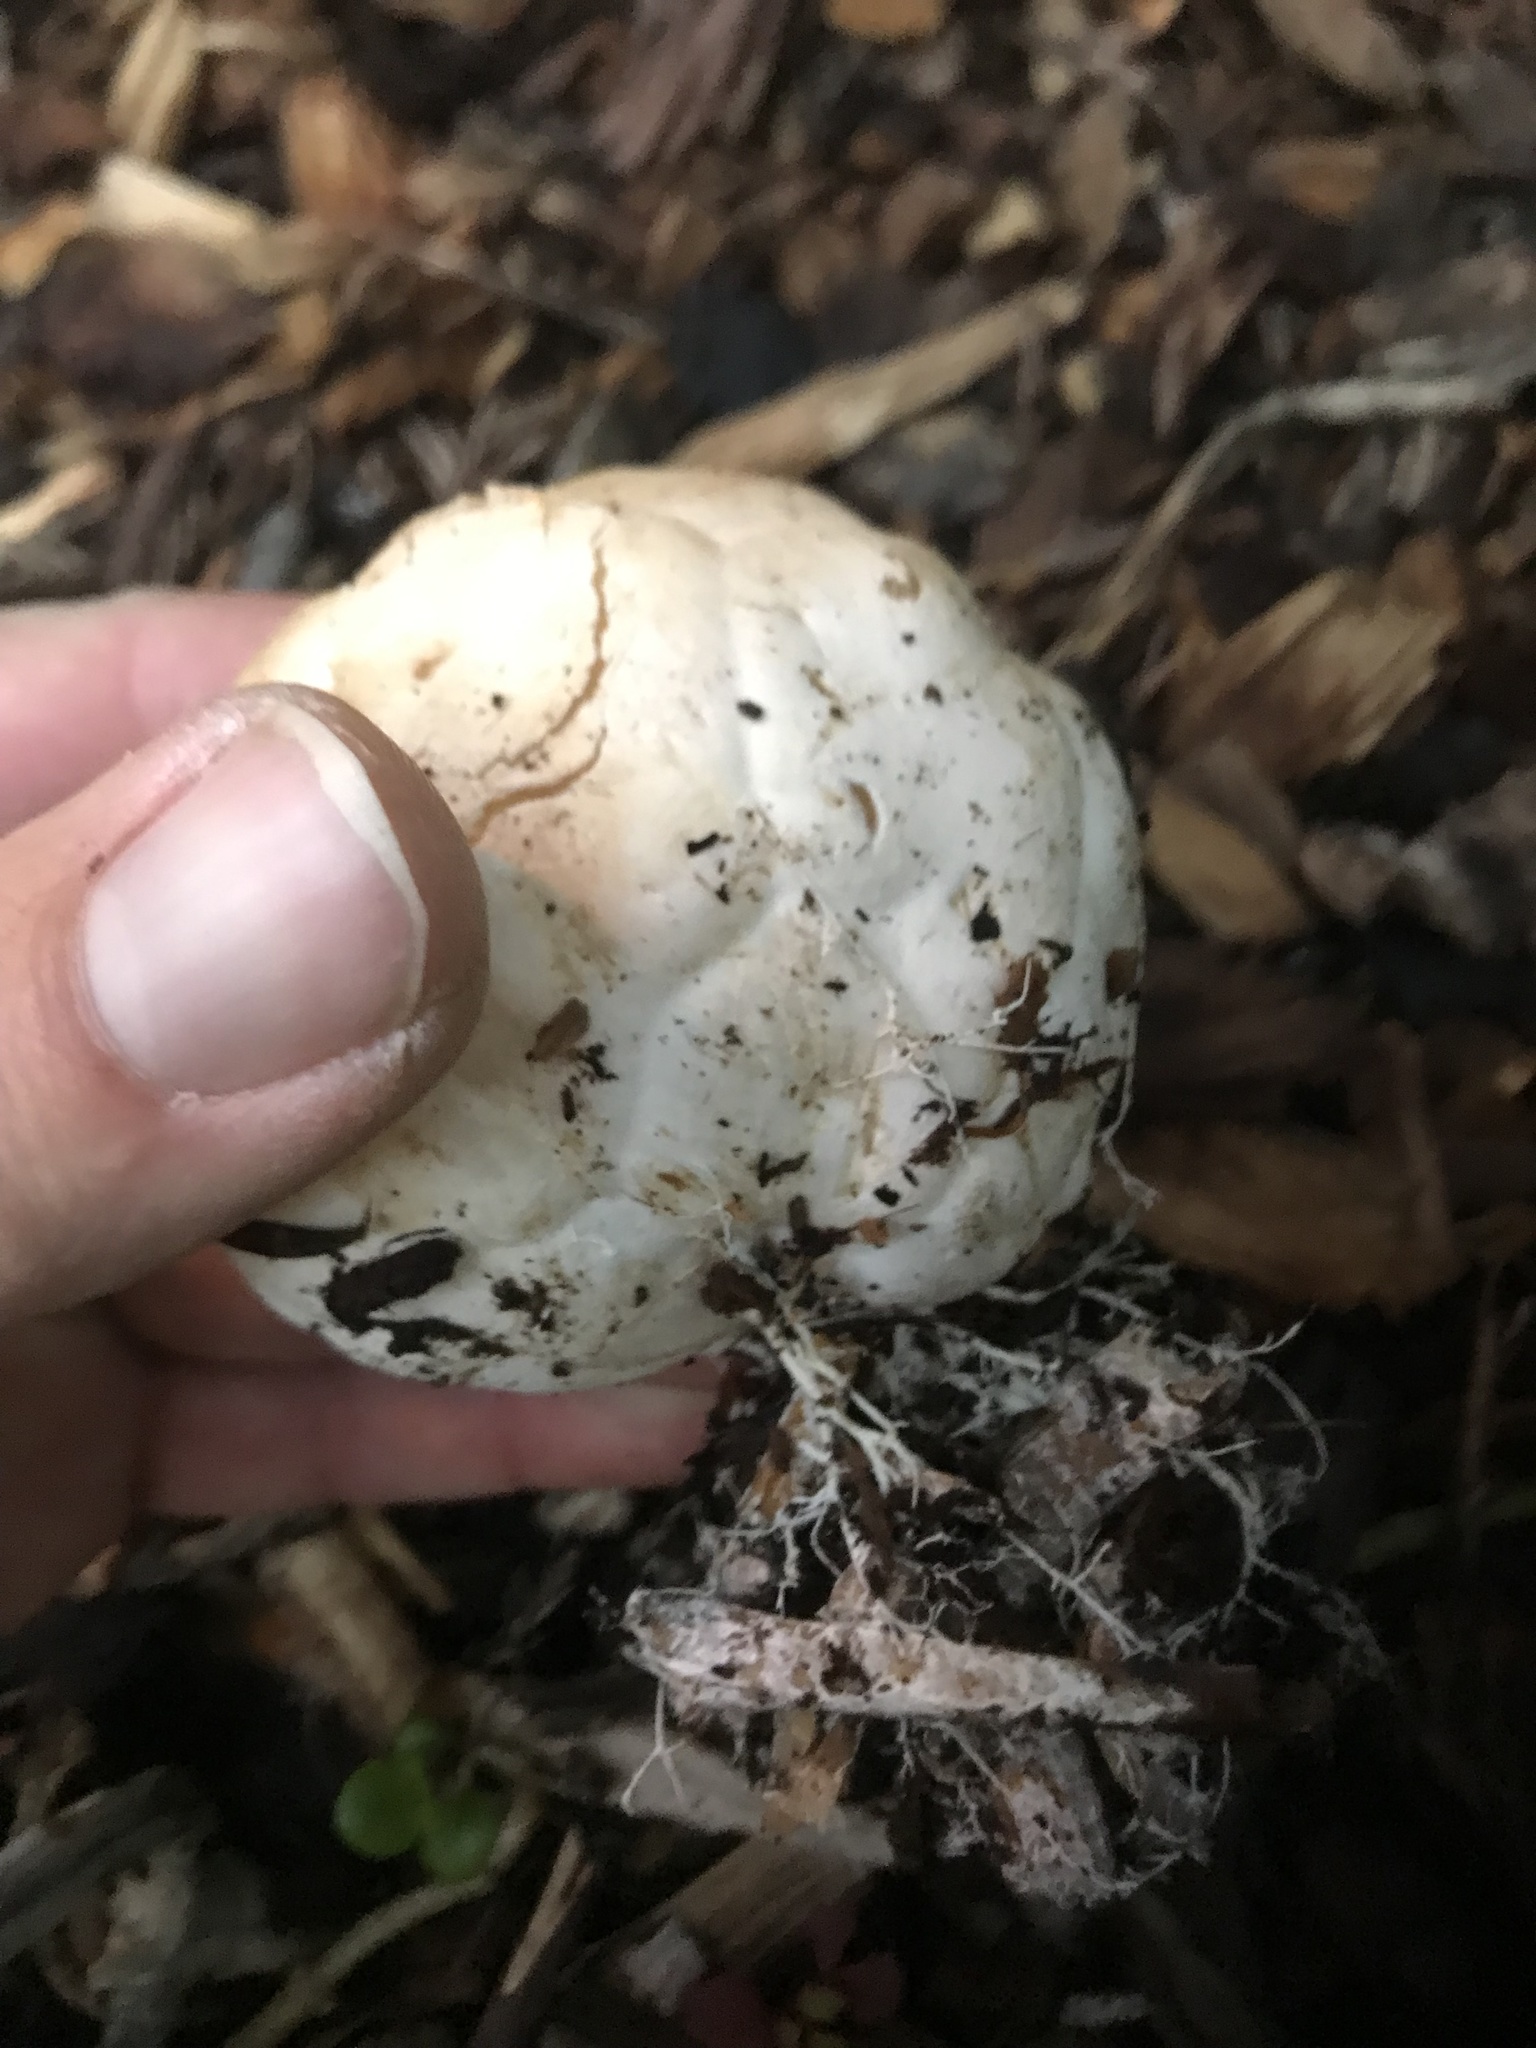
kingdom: Fungi
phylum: Basidiomycota
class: Agaricomycetes
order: Phallales
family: Phallaceae
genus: Clathrus
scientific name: Clathrus ruber
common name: Red cage
